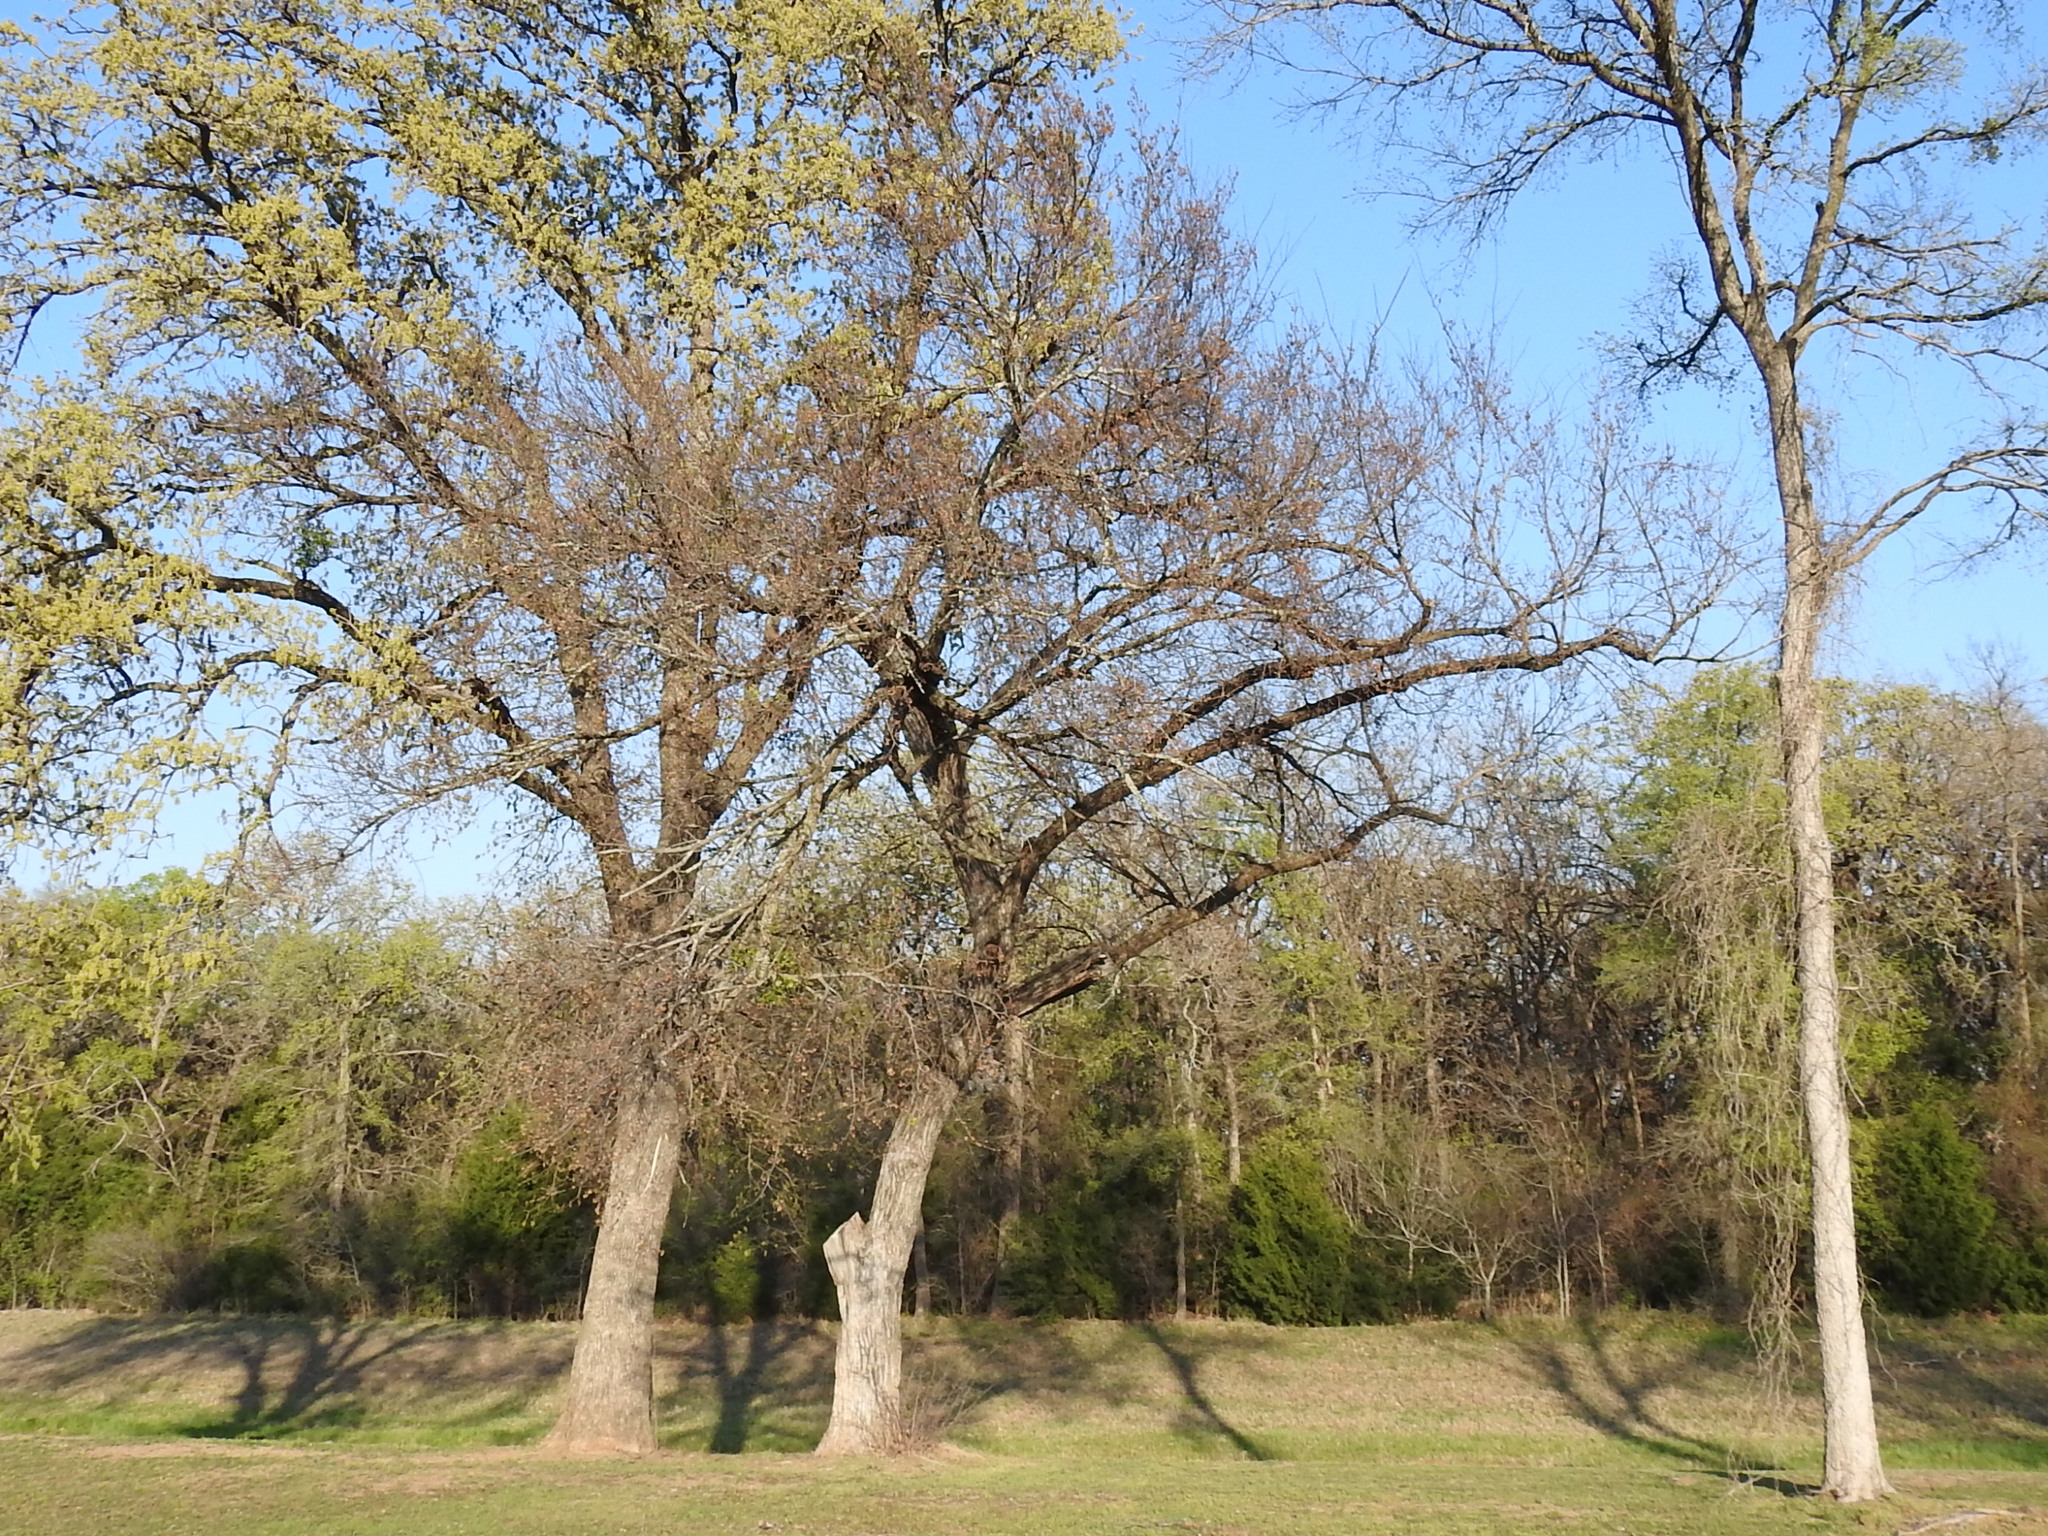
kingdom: Plantae
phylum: Tracheophyta
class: Magnoliopsida
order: Rosales
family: Ulmaceae
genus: Ulmus
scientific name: Ulmus americana
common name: American elm
